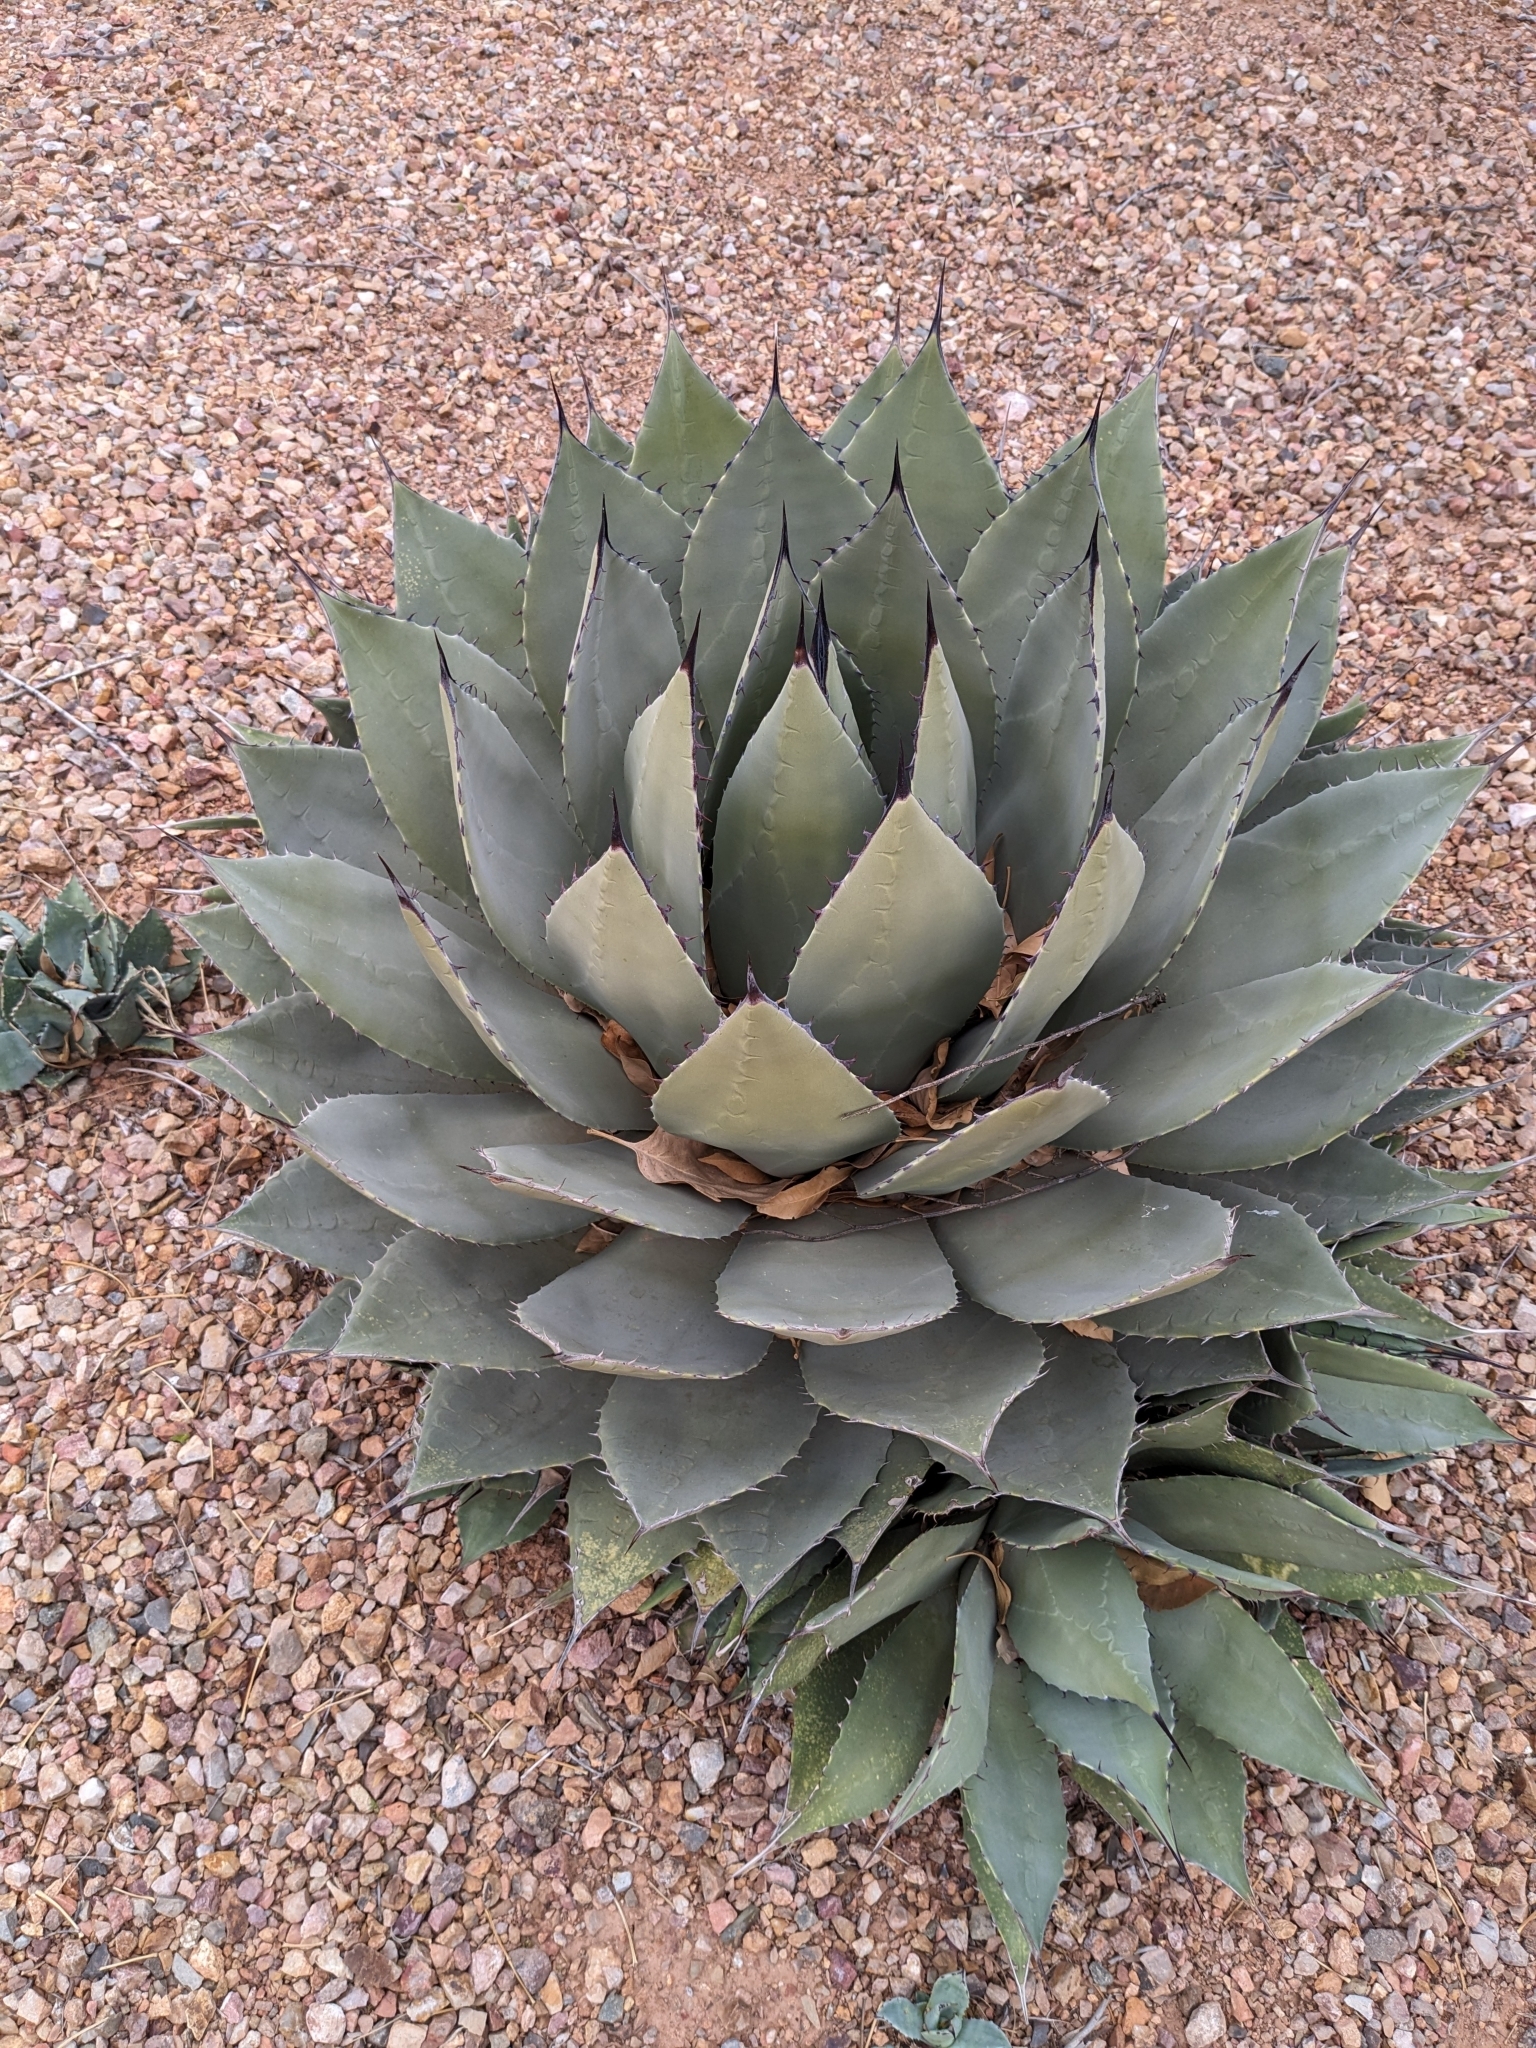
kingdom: Plantae
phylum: Tracheophyta
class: Liliopsida
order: Asparagales
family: Asparagaceae
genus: Agave
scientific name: Agave parryi
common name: Parry's agave
